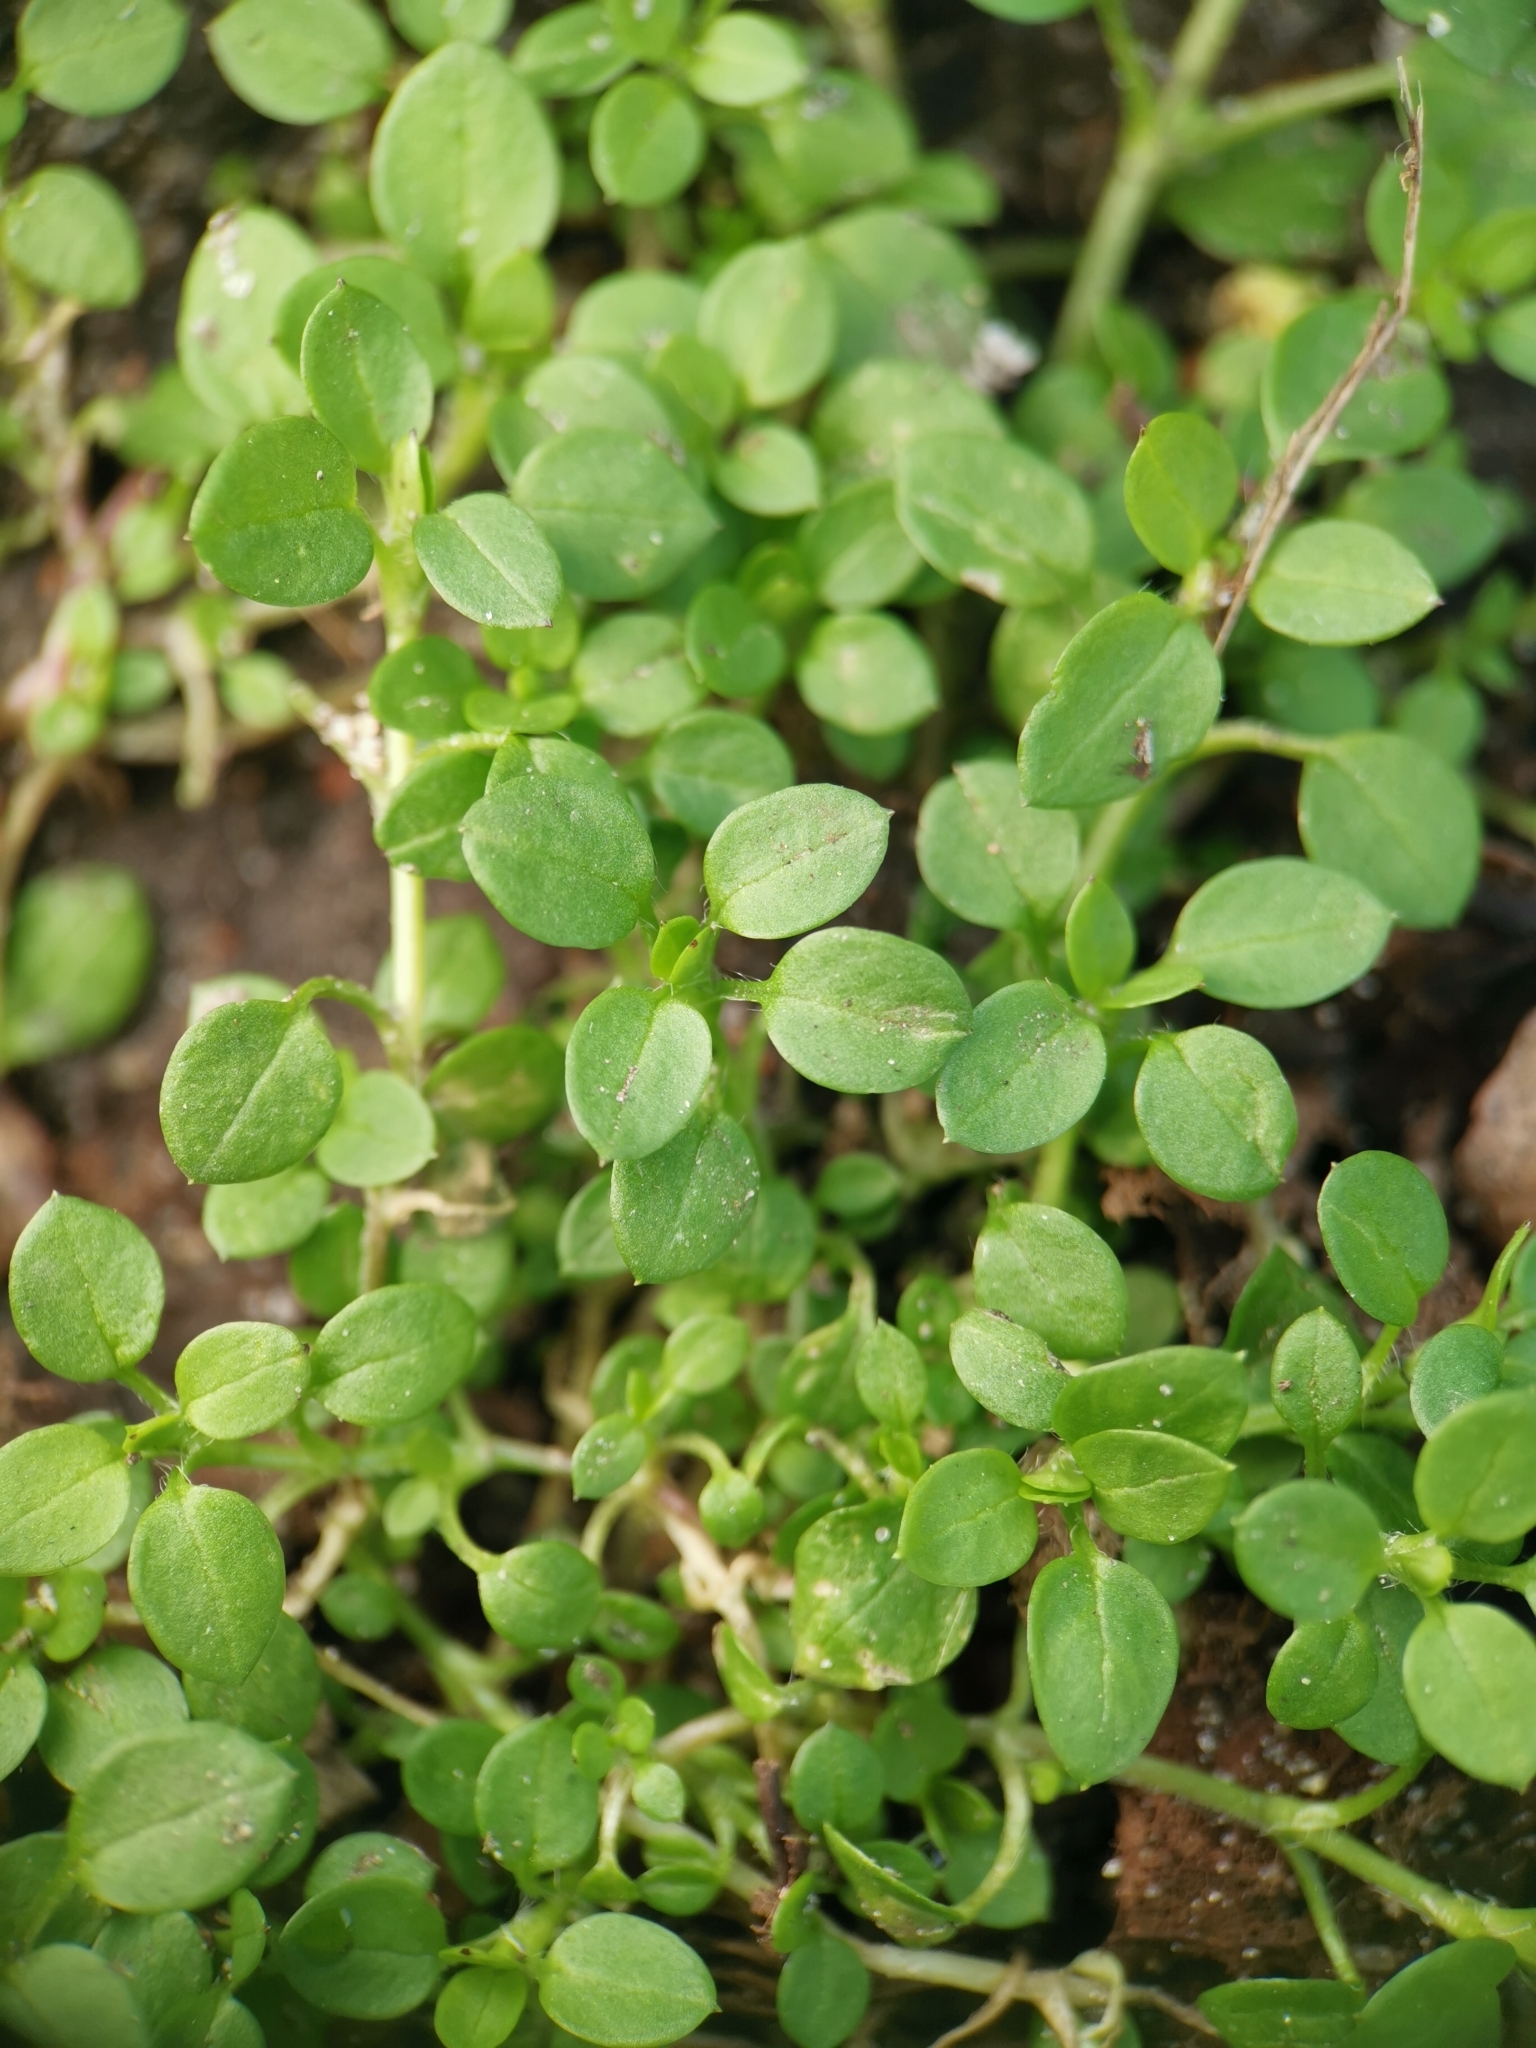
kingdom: Plantae
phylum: Tracheophyta
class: Magnoliopsida
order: Caryophyllales
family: Caryophyllaceae
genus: Stellaria
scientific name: Stellaria media
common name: Common chickweed
